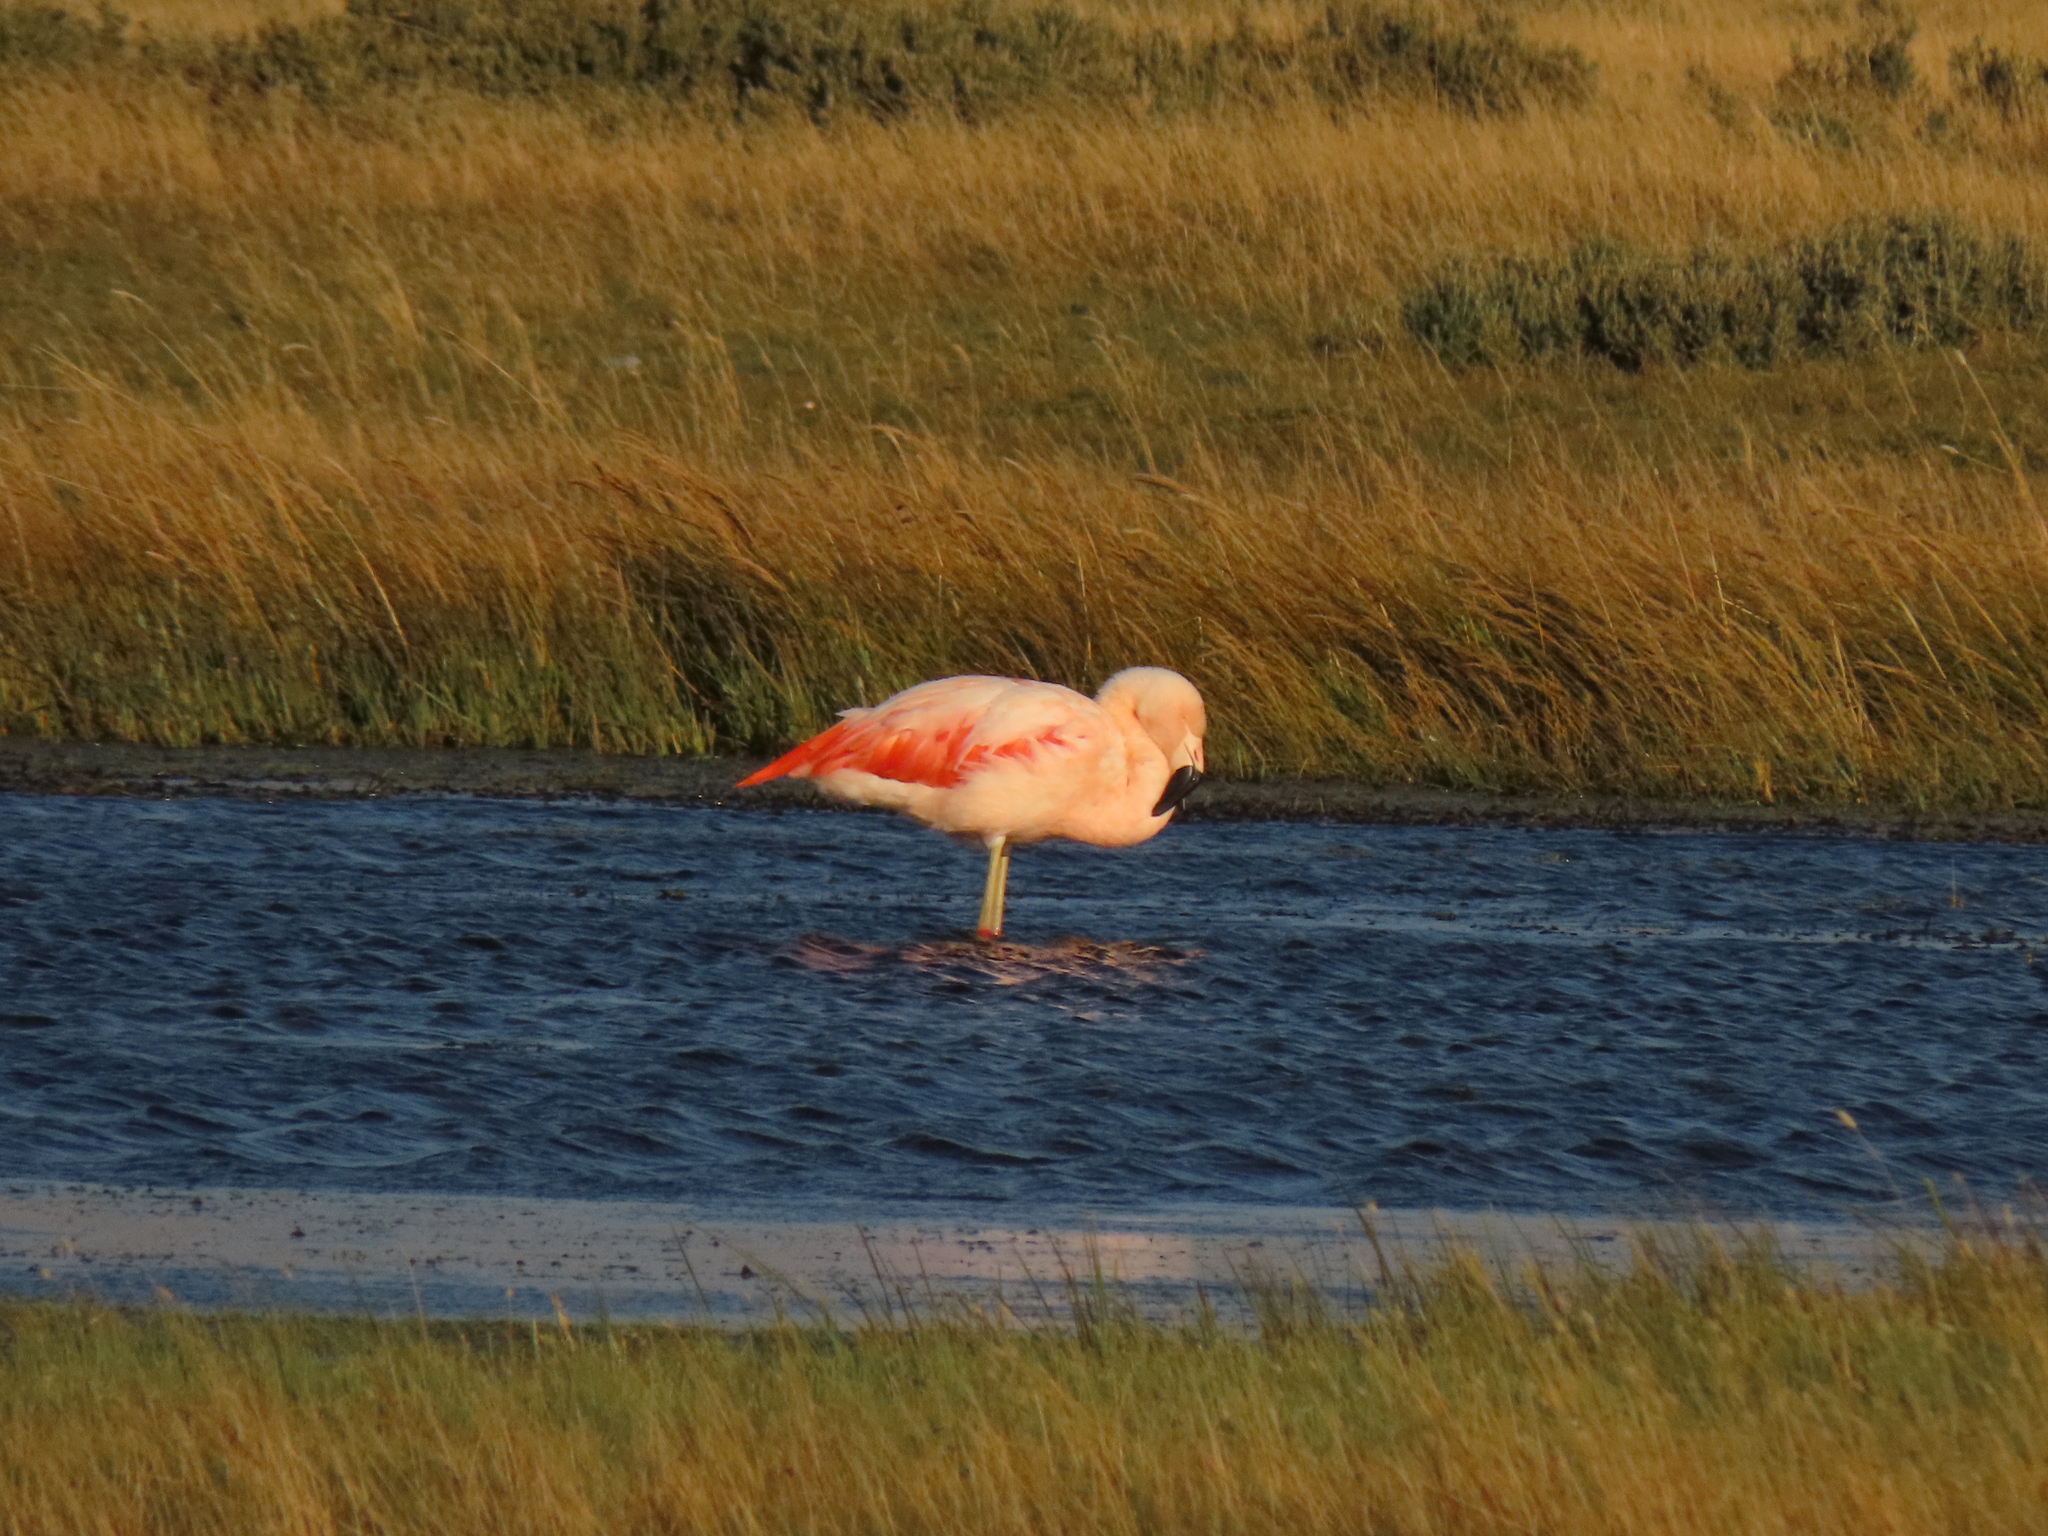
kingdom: Animalia
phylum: Chordata
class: Aves
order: Phoenicopteriformes
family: Phoenicopteridae
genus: Phoenicopterus
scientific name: Phoenicopterus chilensis
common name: Chilean flamingo
